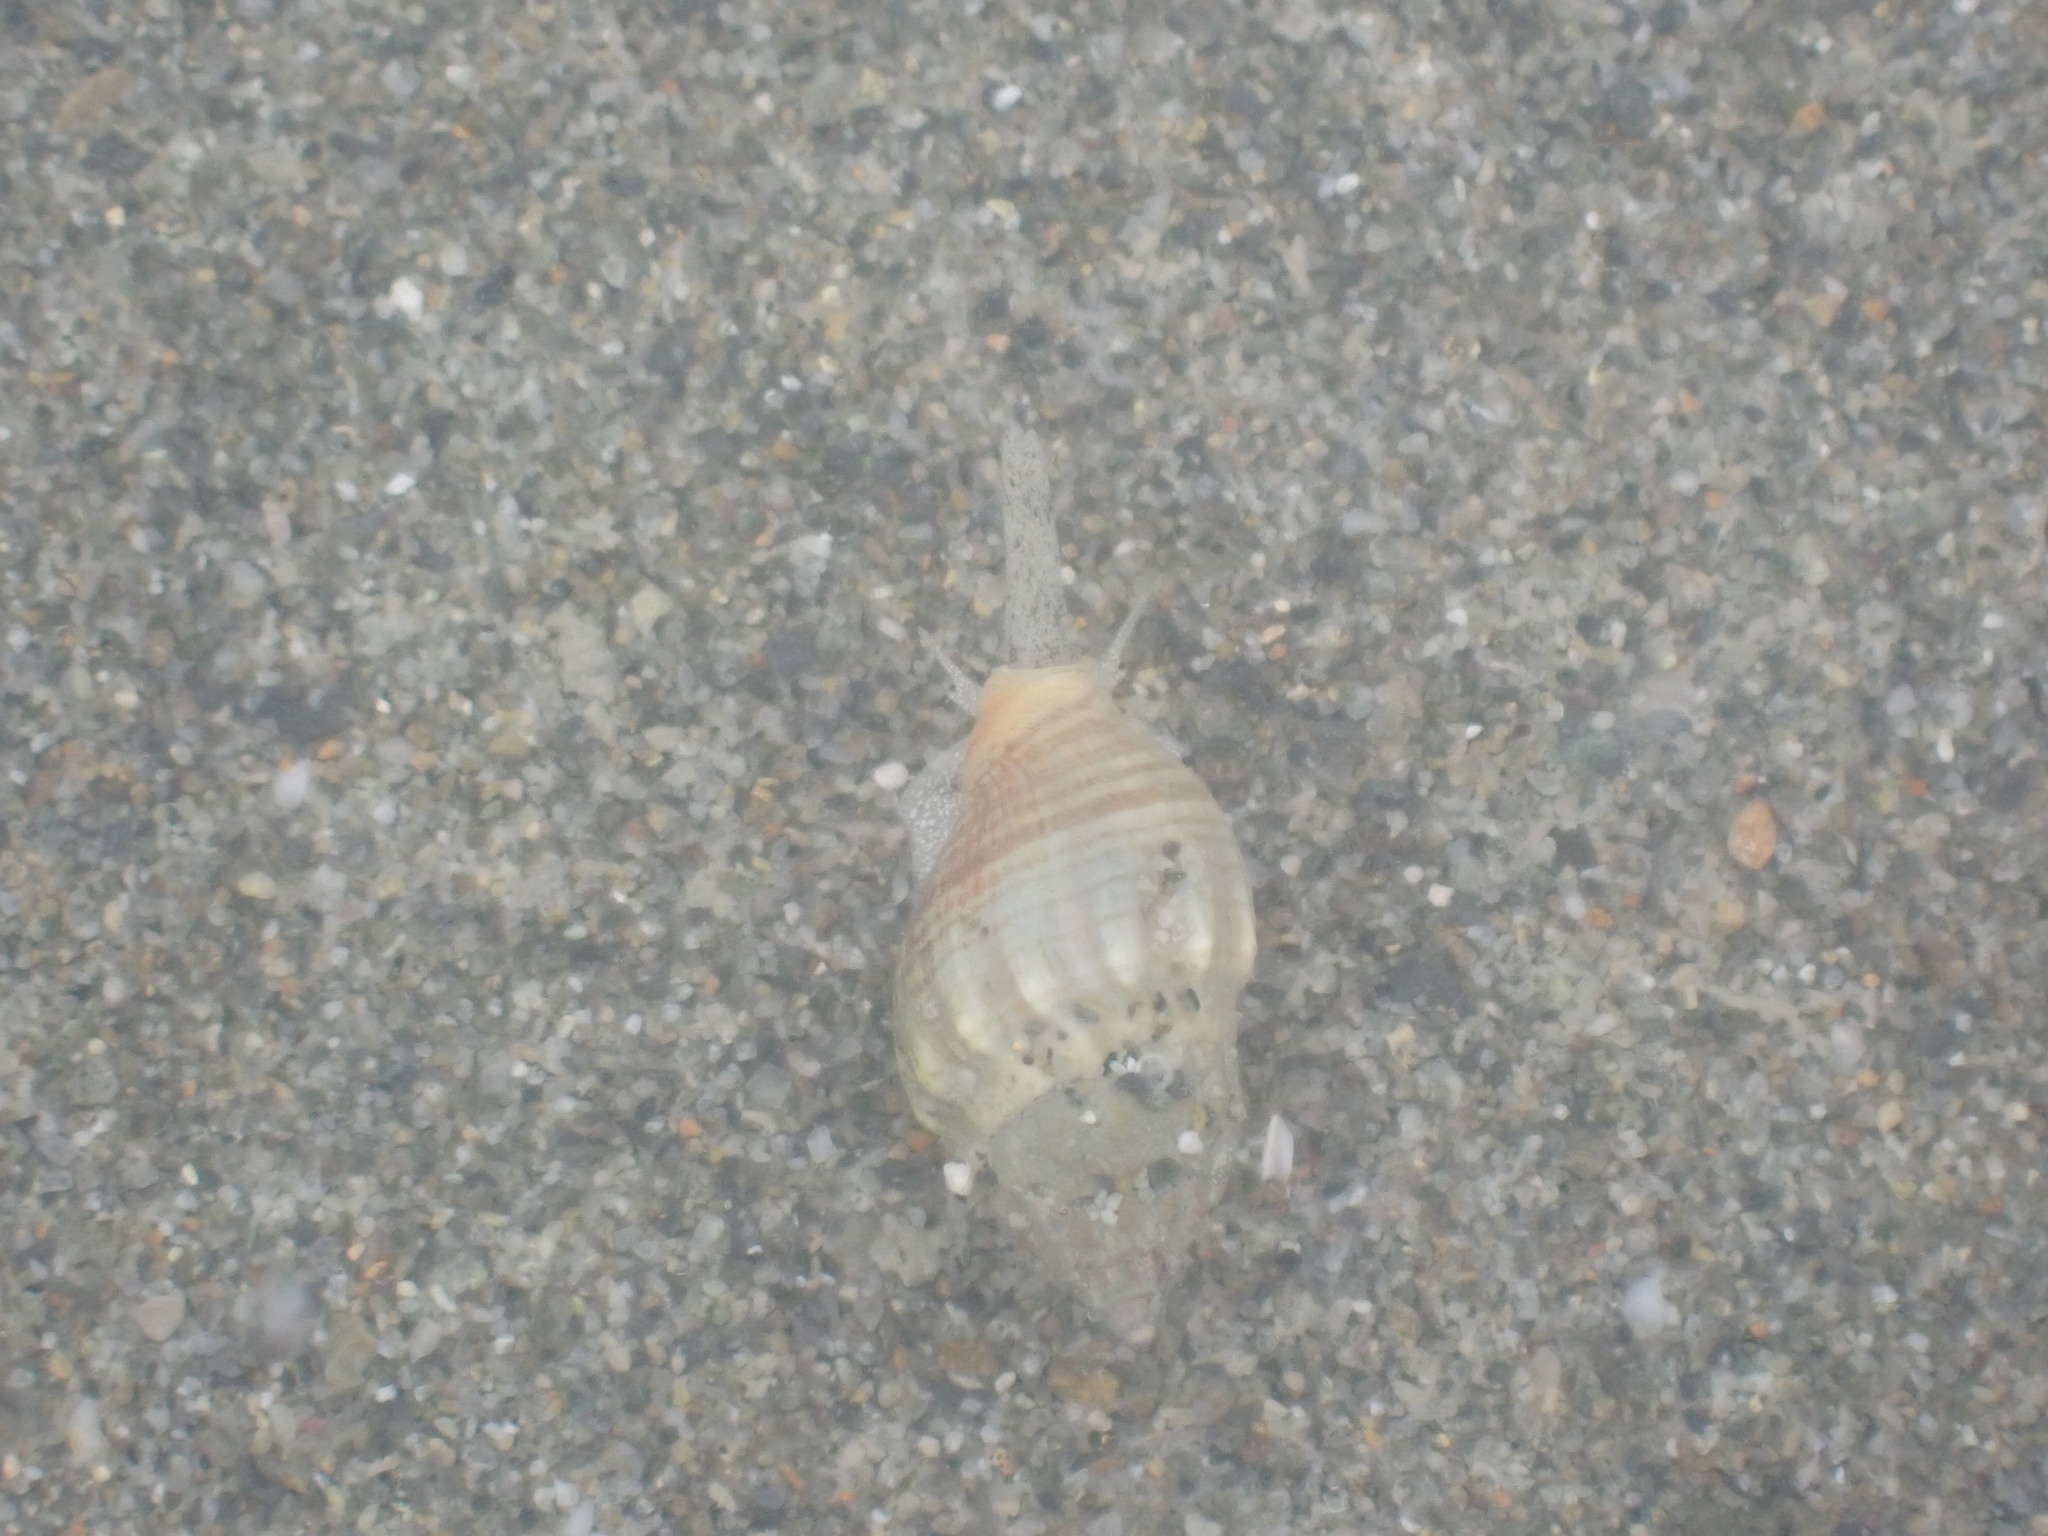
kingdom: Animalia
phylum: Mollusca
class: Gastropoda
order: Neogastropoda
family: Cominellidae
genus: Cominella
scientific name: Cominella glandiformis
